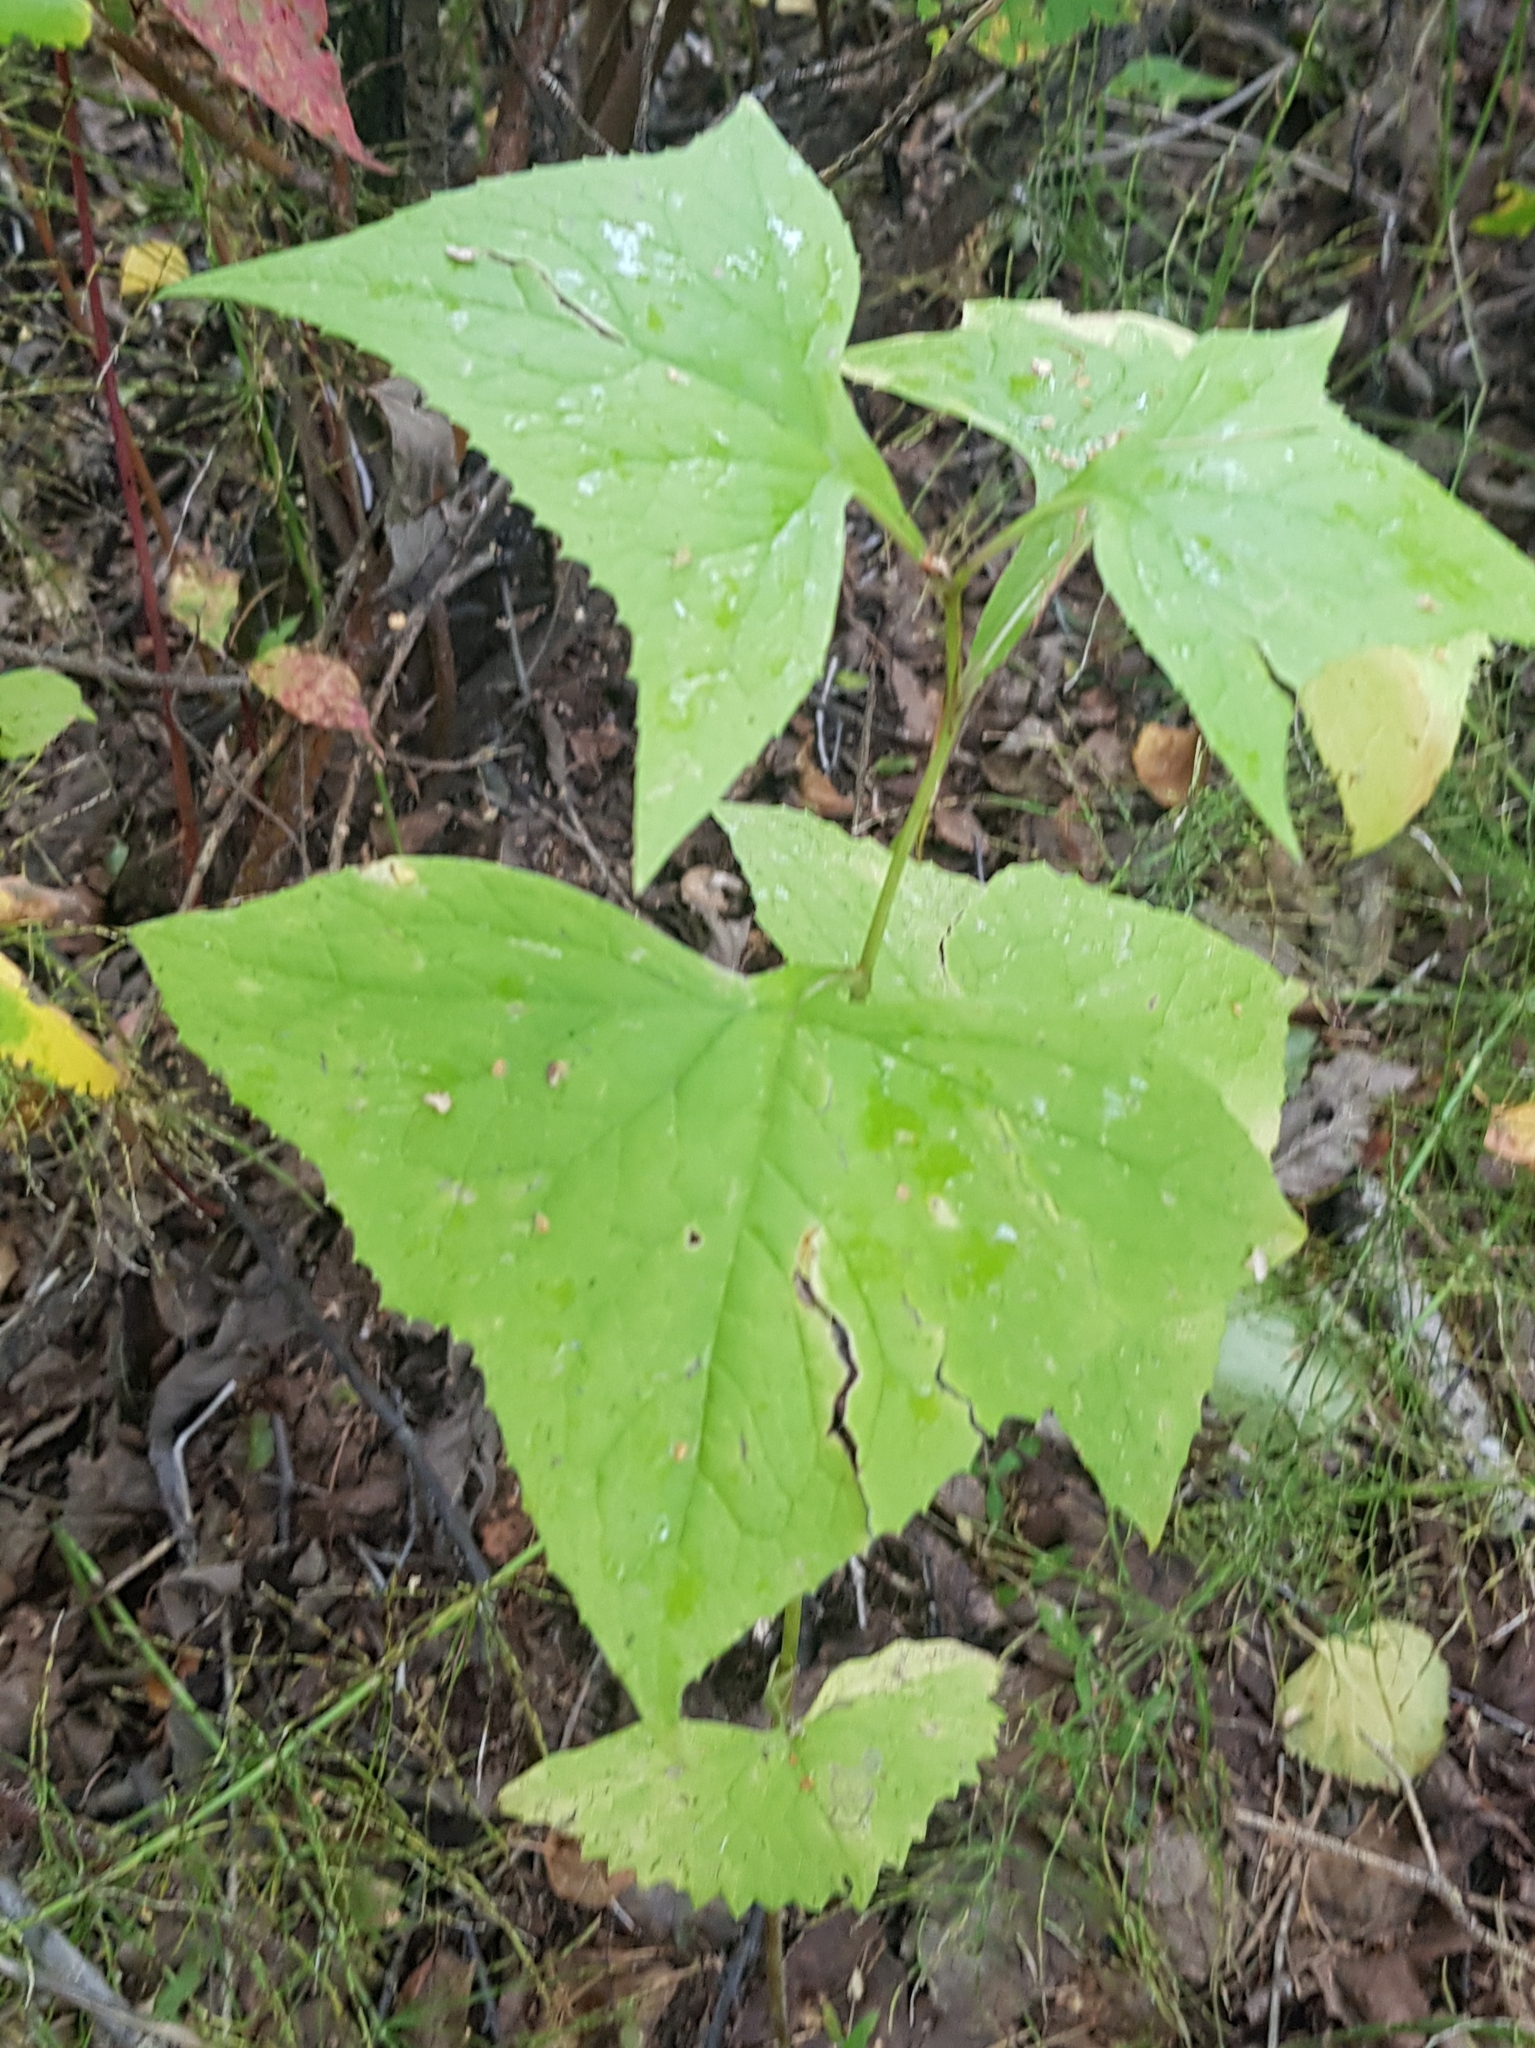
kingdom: Plantae
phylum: Tracheophyta
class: Magnoliopsida
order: Asterales
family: Asteraceae
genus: Parasenecio
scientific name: Parasenecio hastatus
